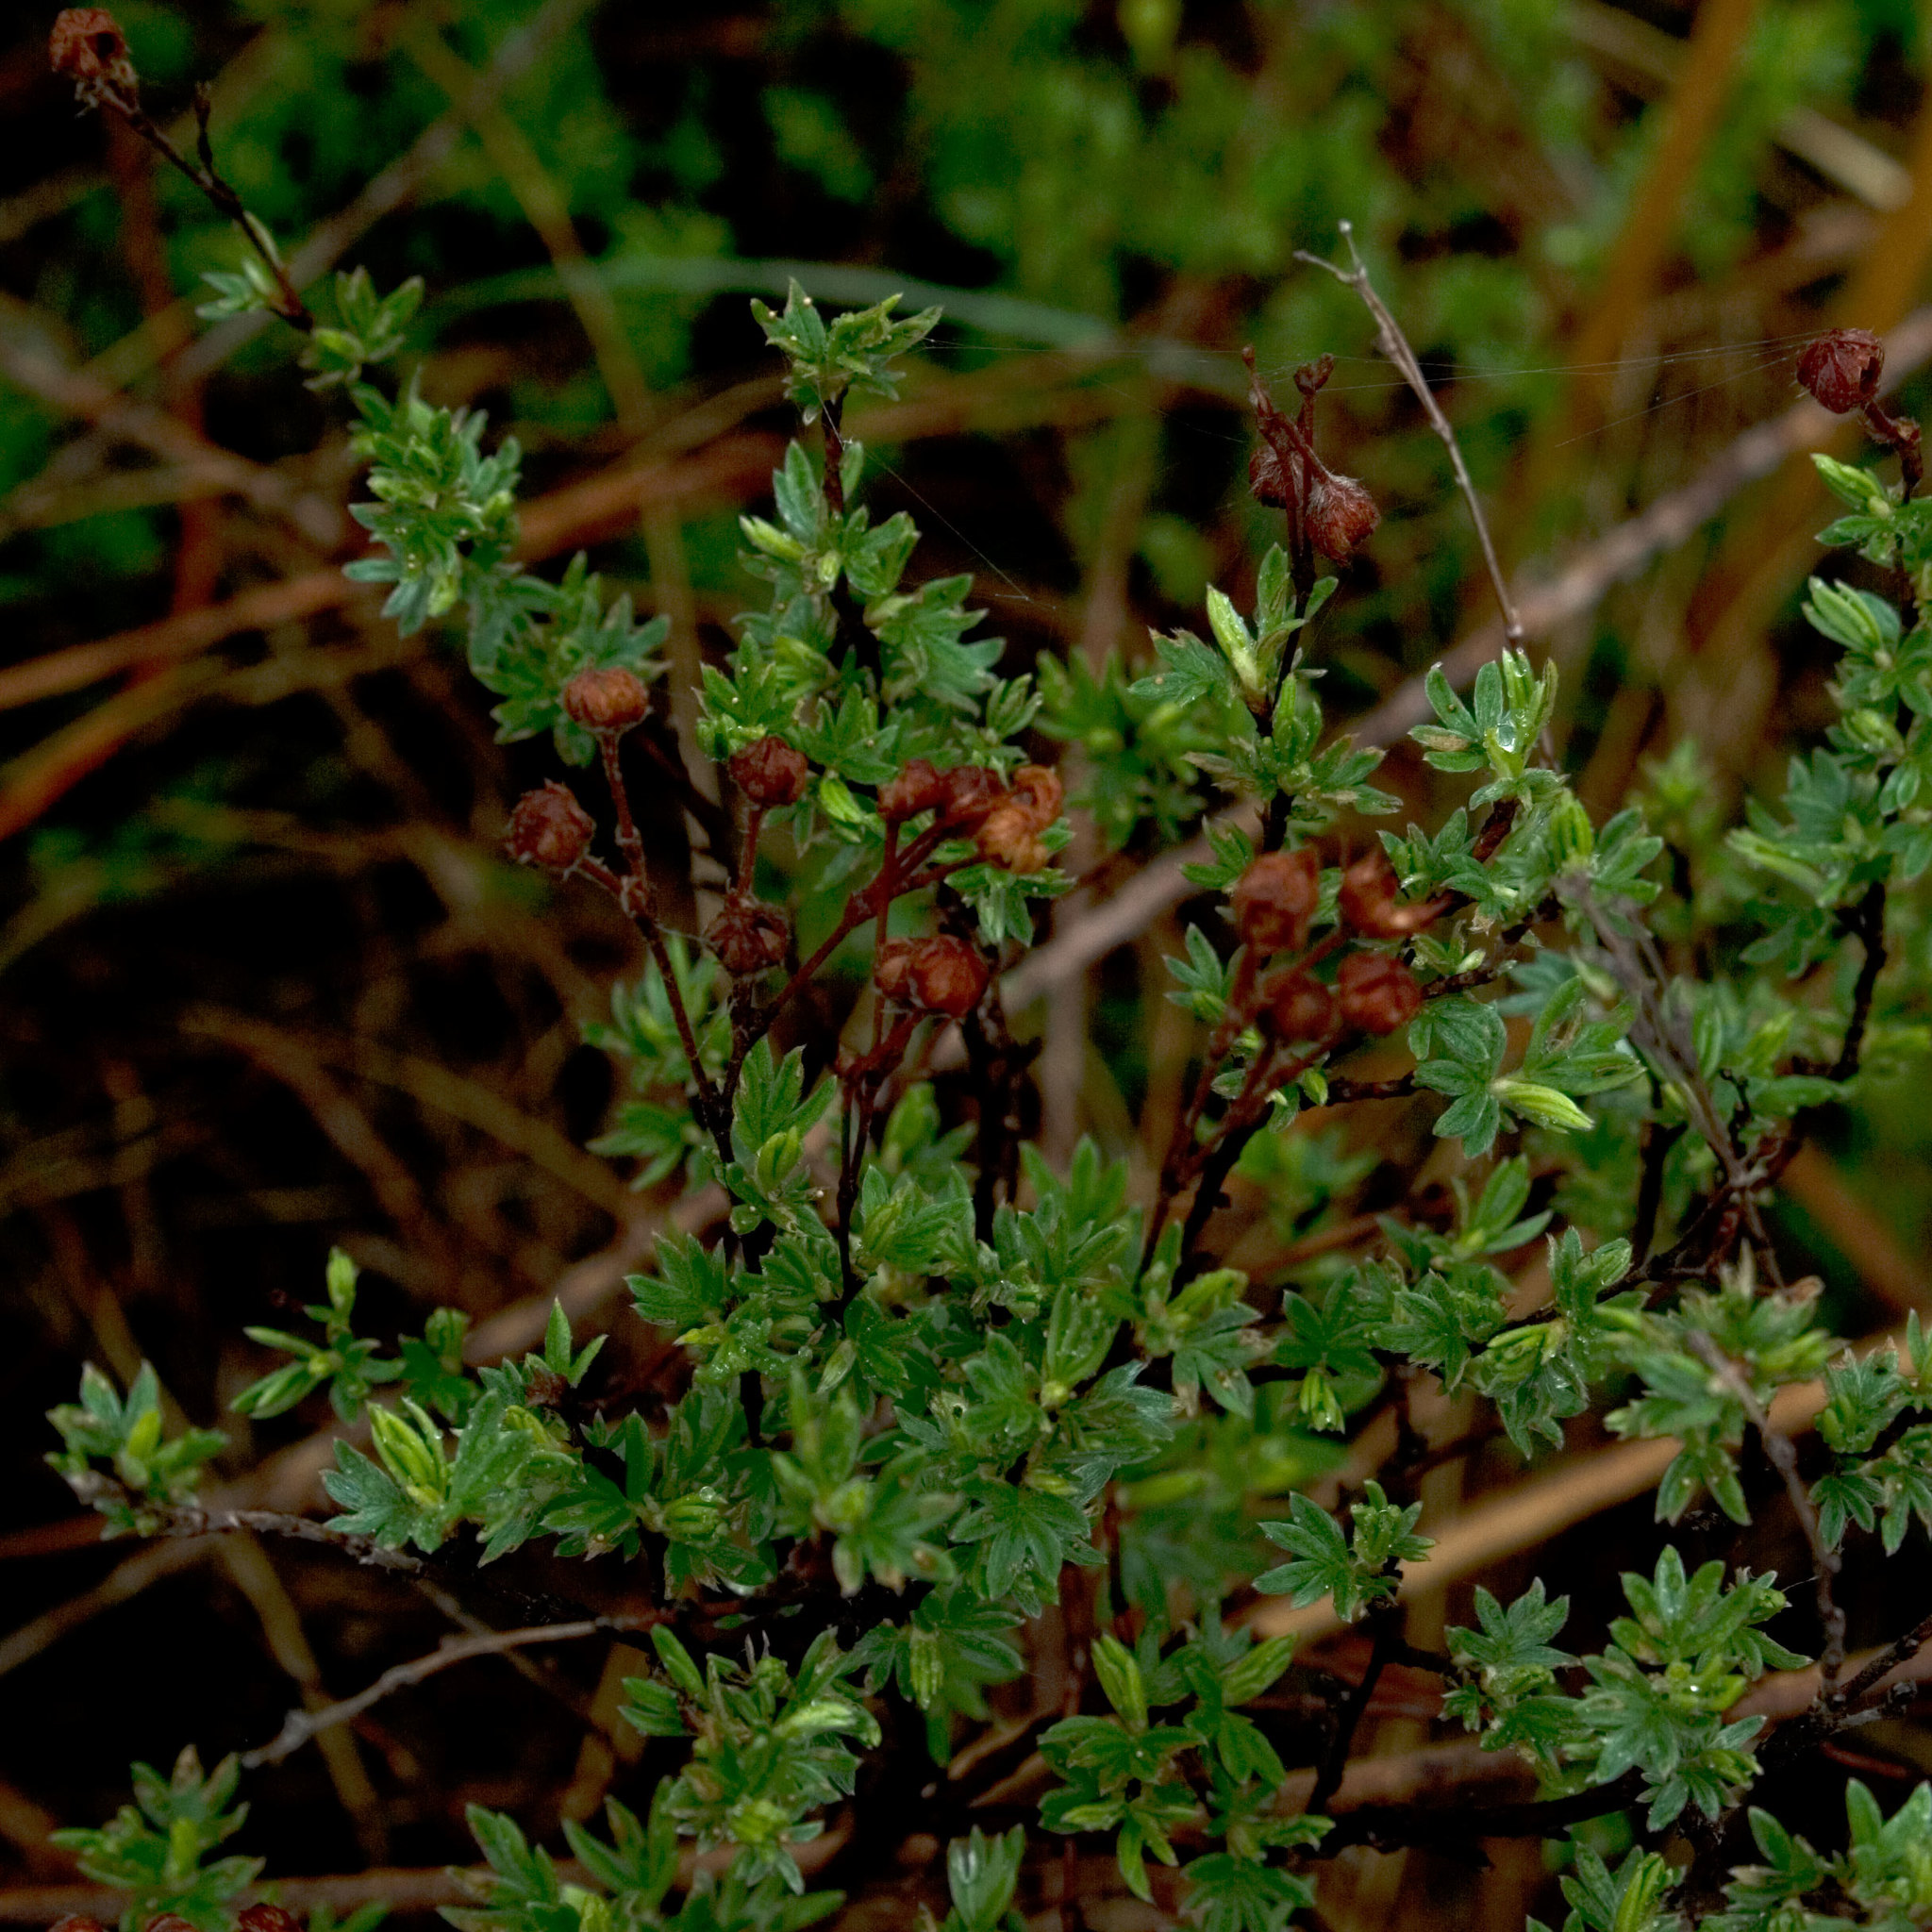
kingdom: Plantae
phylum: Tracheophyta
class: Magnoliopsida
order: Rosales
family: Rosaceae
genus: Dasiphora
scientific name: Dasiphora fruticosa
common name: Shrubby cinquefoil
